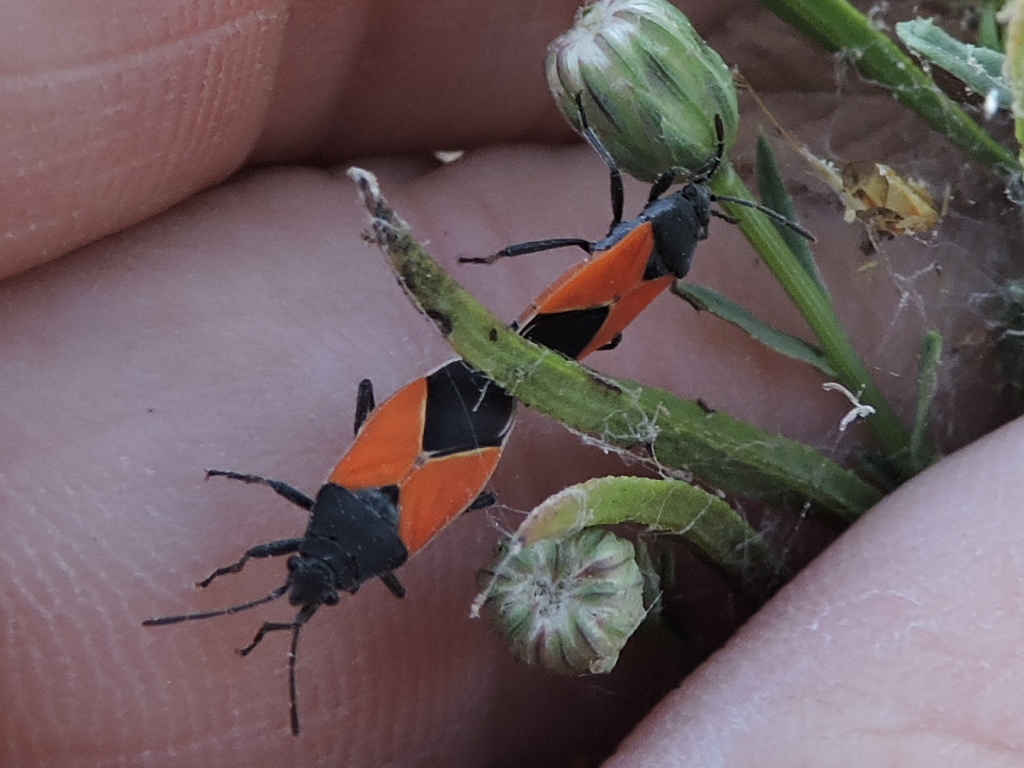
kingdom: Animalia
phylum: Arthropoda
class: Insecta
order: Hemiptera
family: Lygaeidae
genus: Melanopleurus
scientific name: Melanopleurus belfragei
